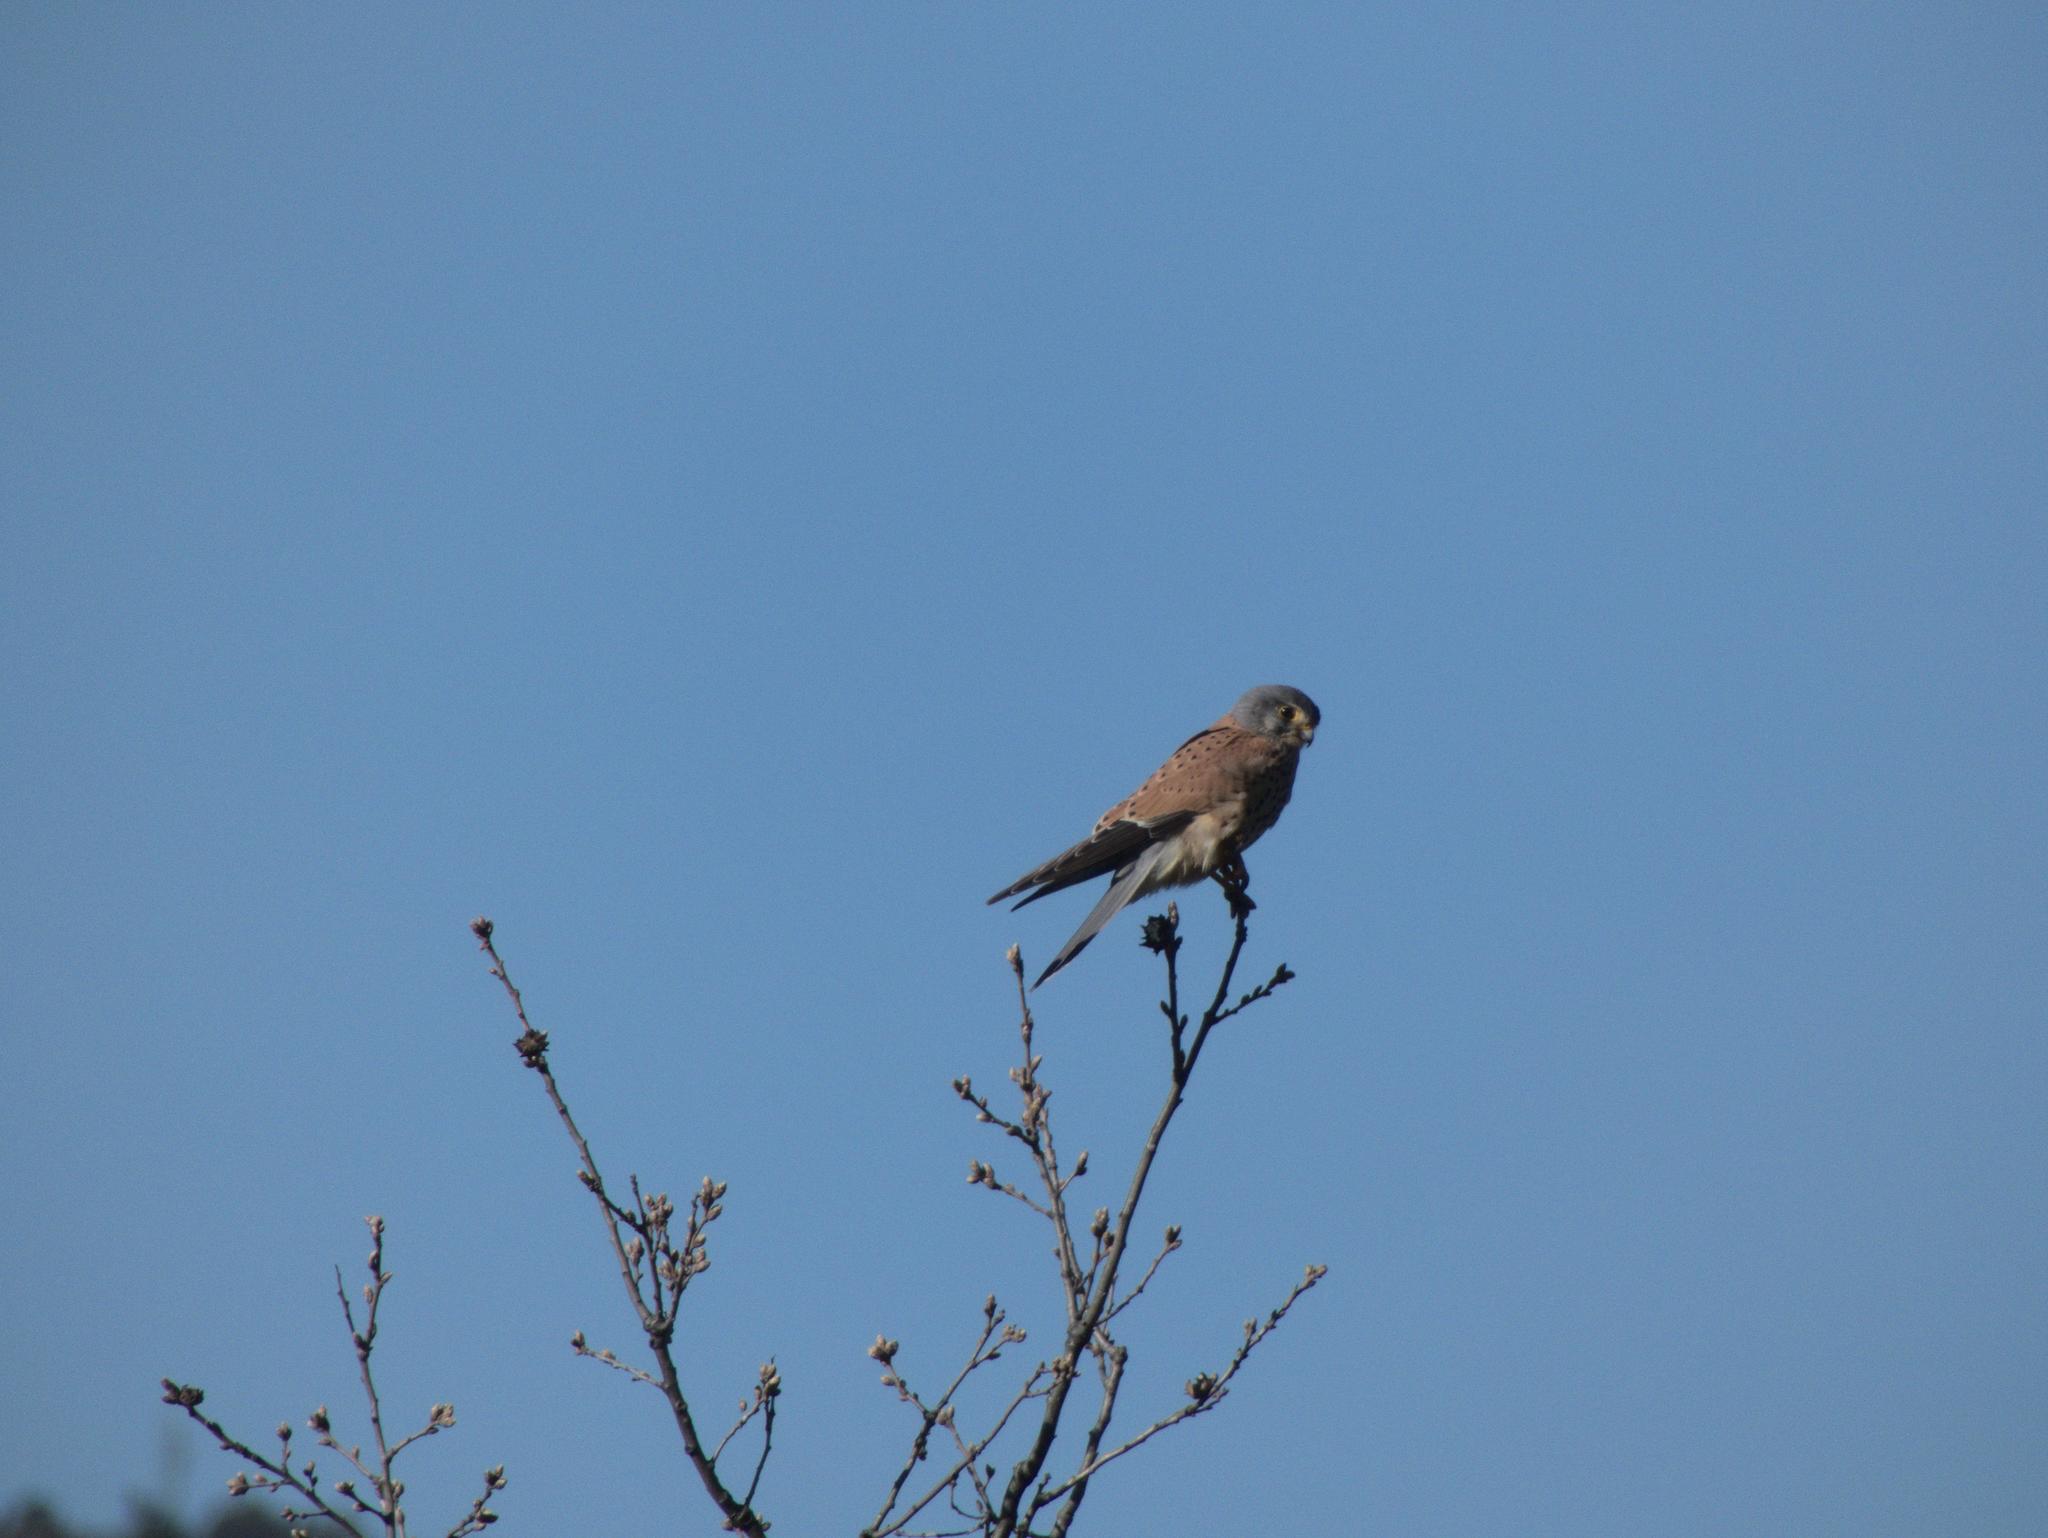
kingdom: Animalia
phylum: Chordata
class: Aves
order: Falconiformes
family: Falconidae
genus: Falco
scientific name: Falco tinnunculus
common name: Common kestrel
